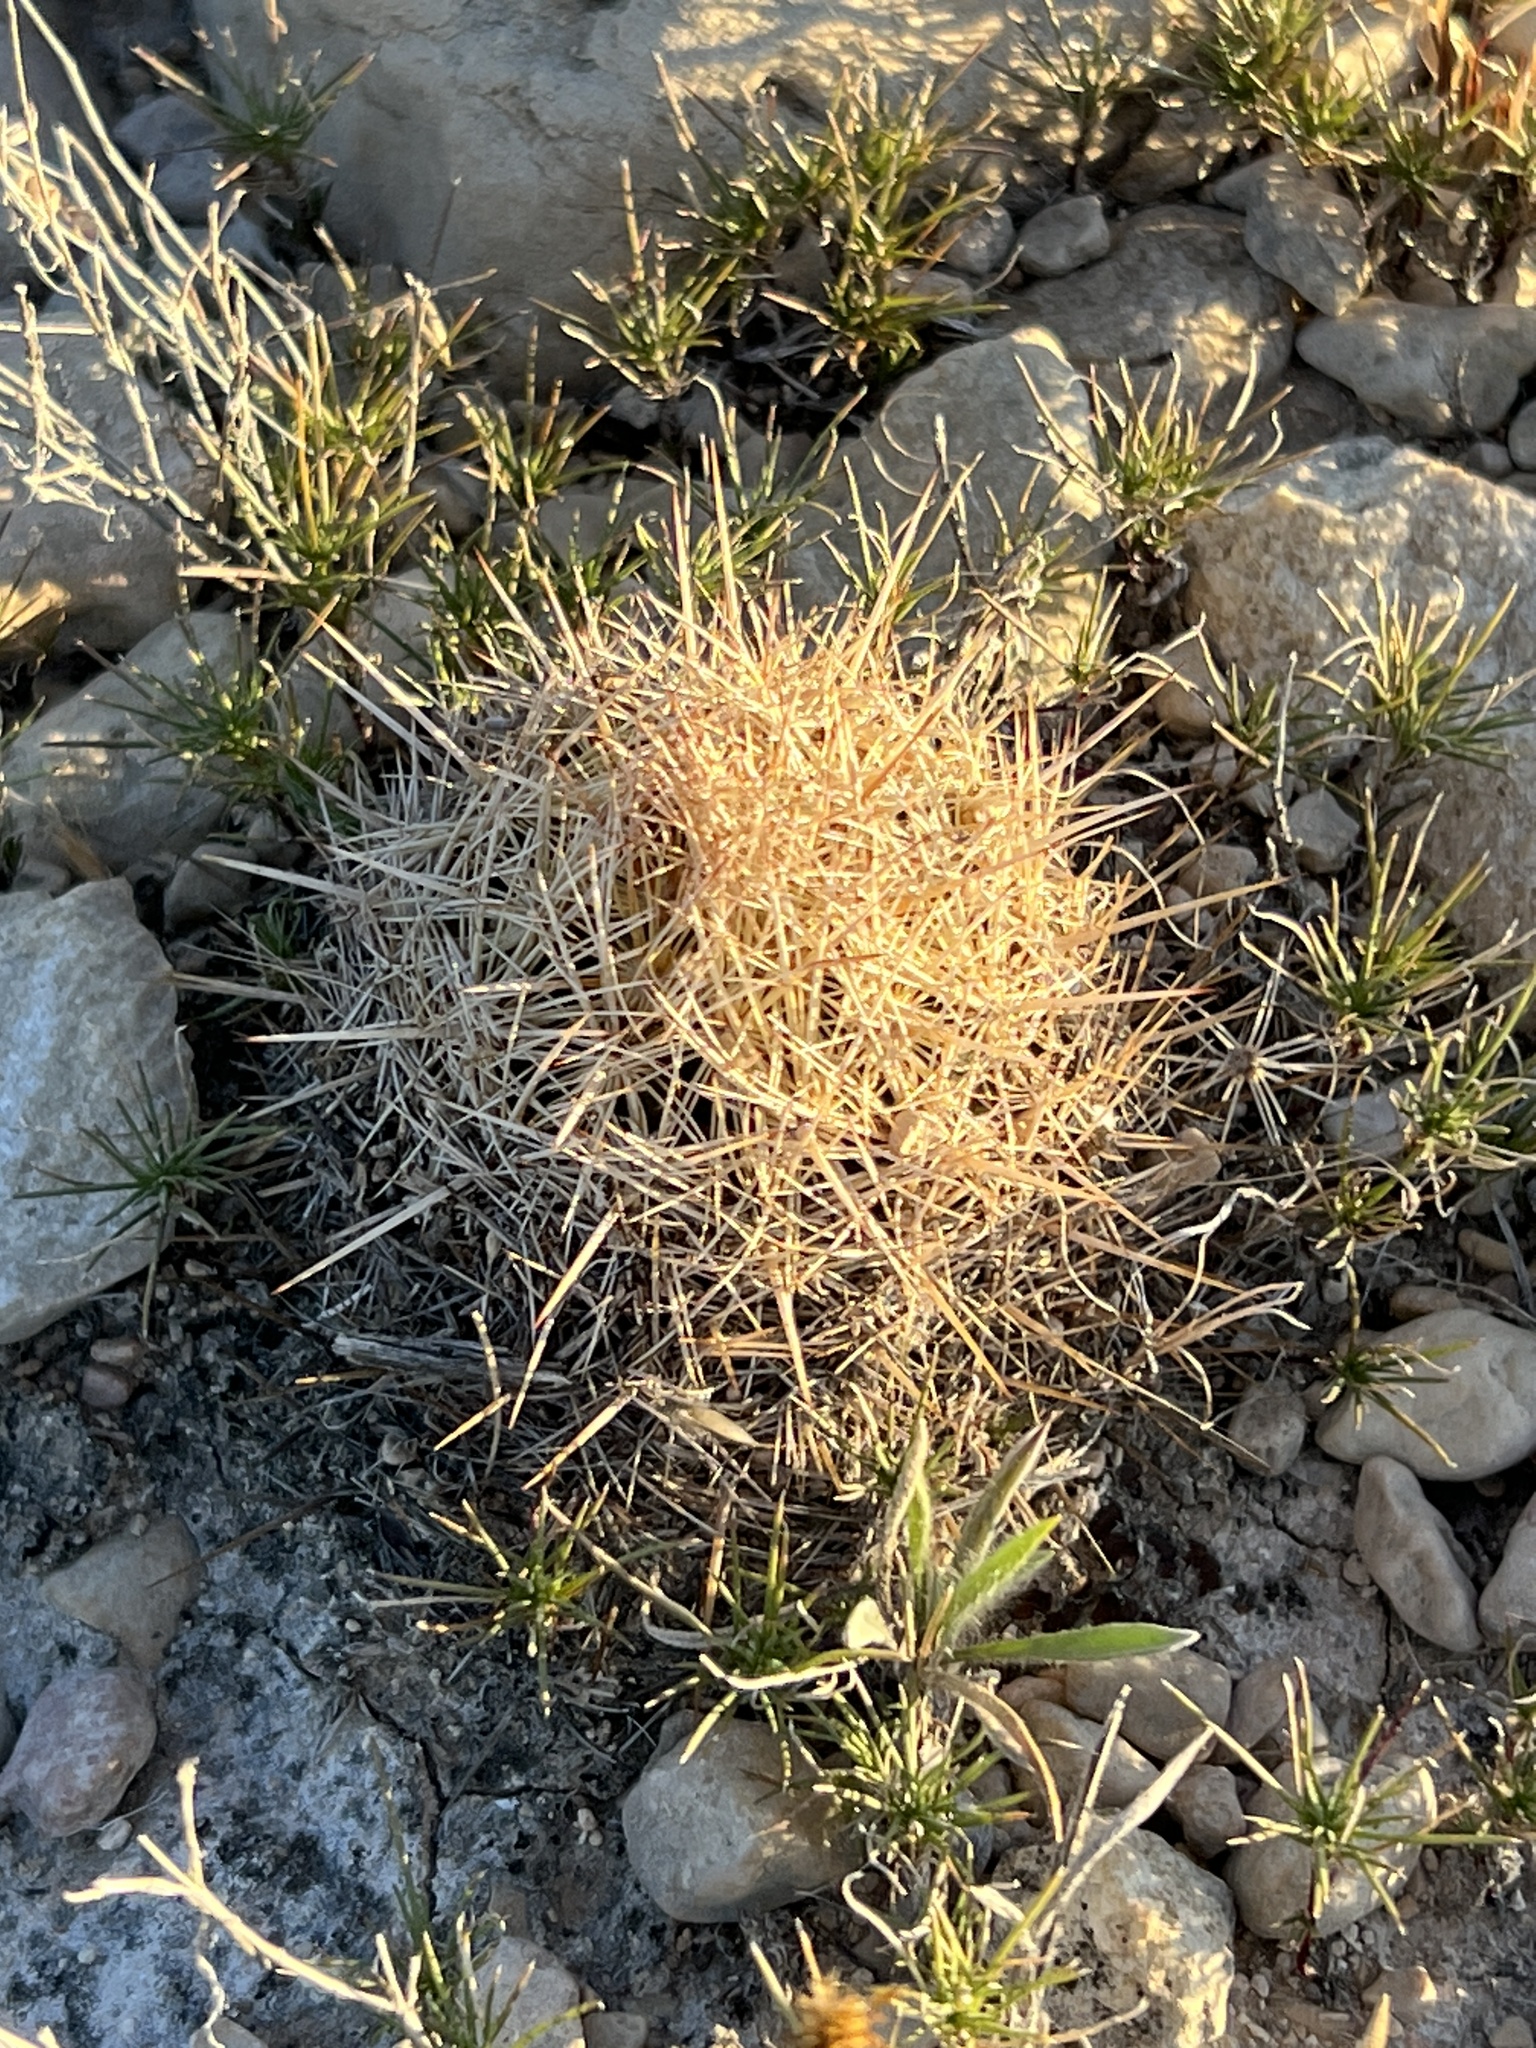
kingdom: Plantae
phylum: Tracheophyta
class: Magnoliopsida
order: Caryophyllales
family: Cactaceae
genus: Coryphantha
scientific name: Coryphantha echinus
